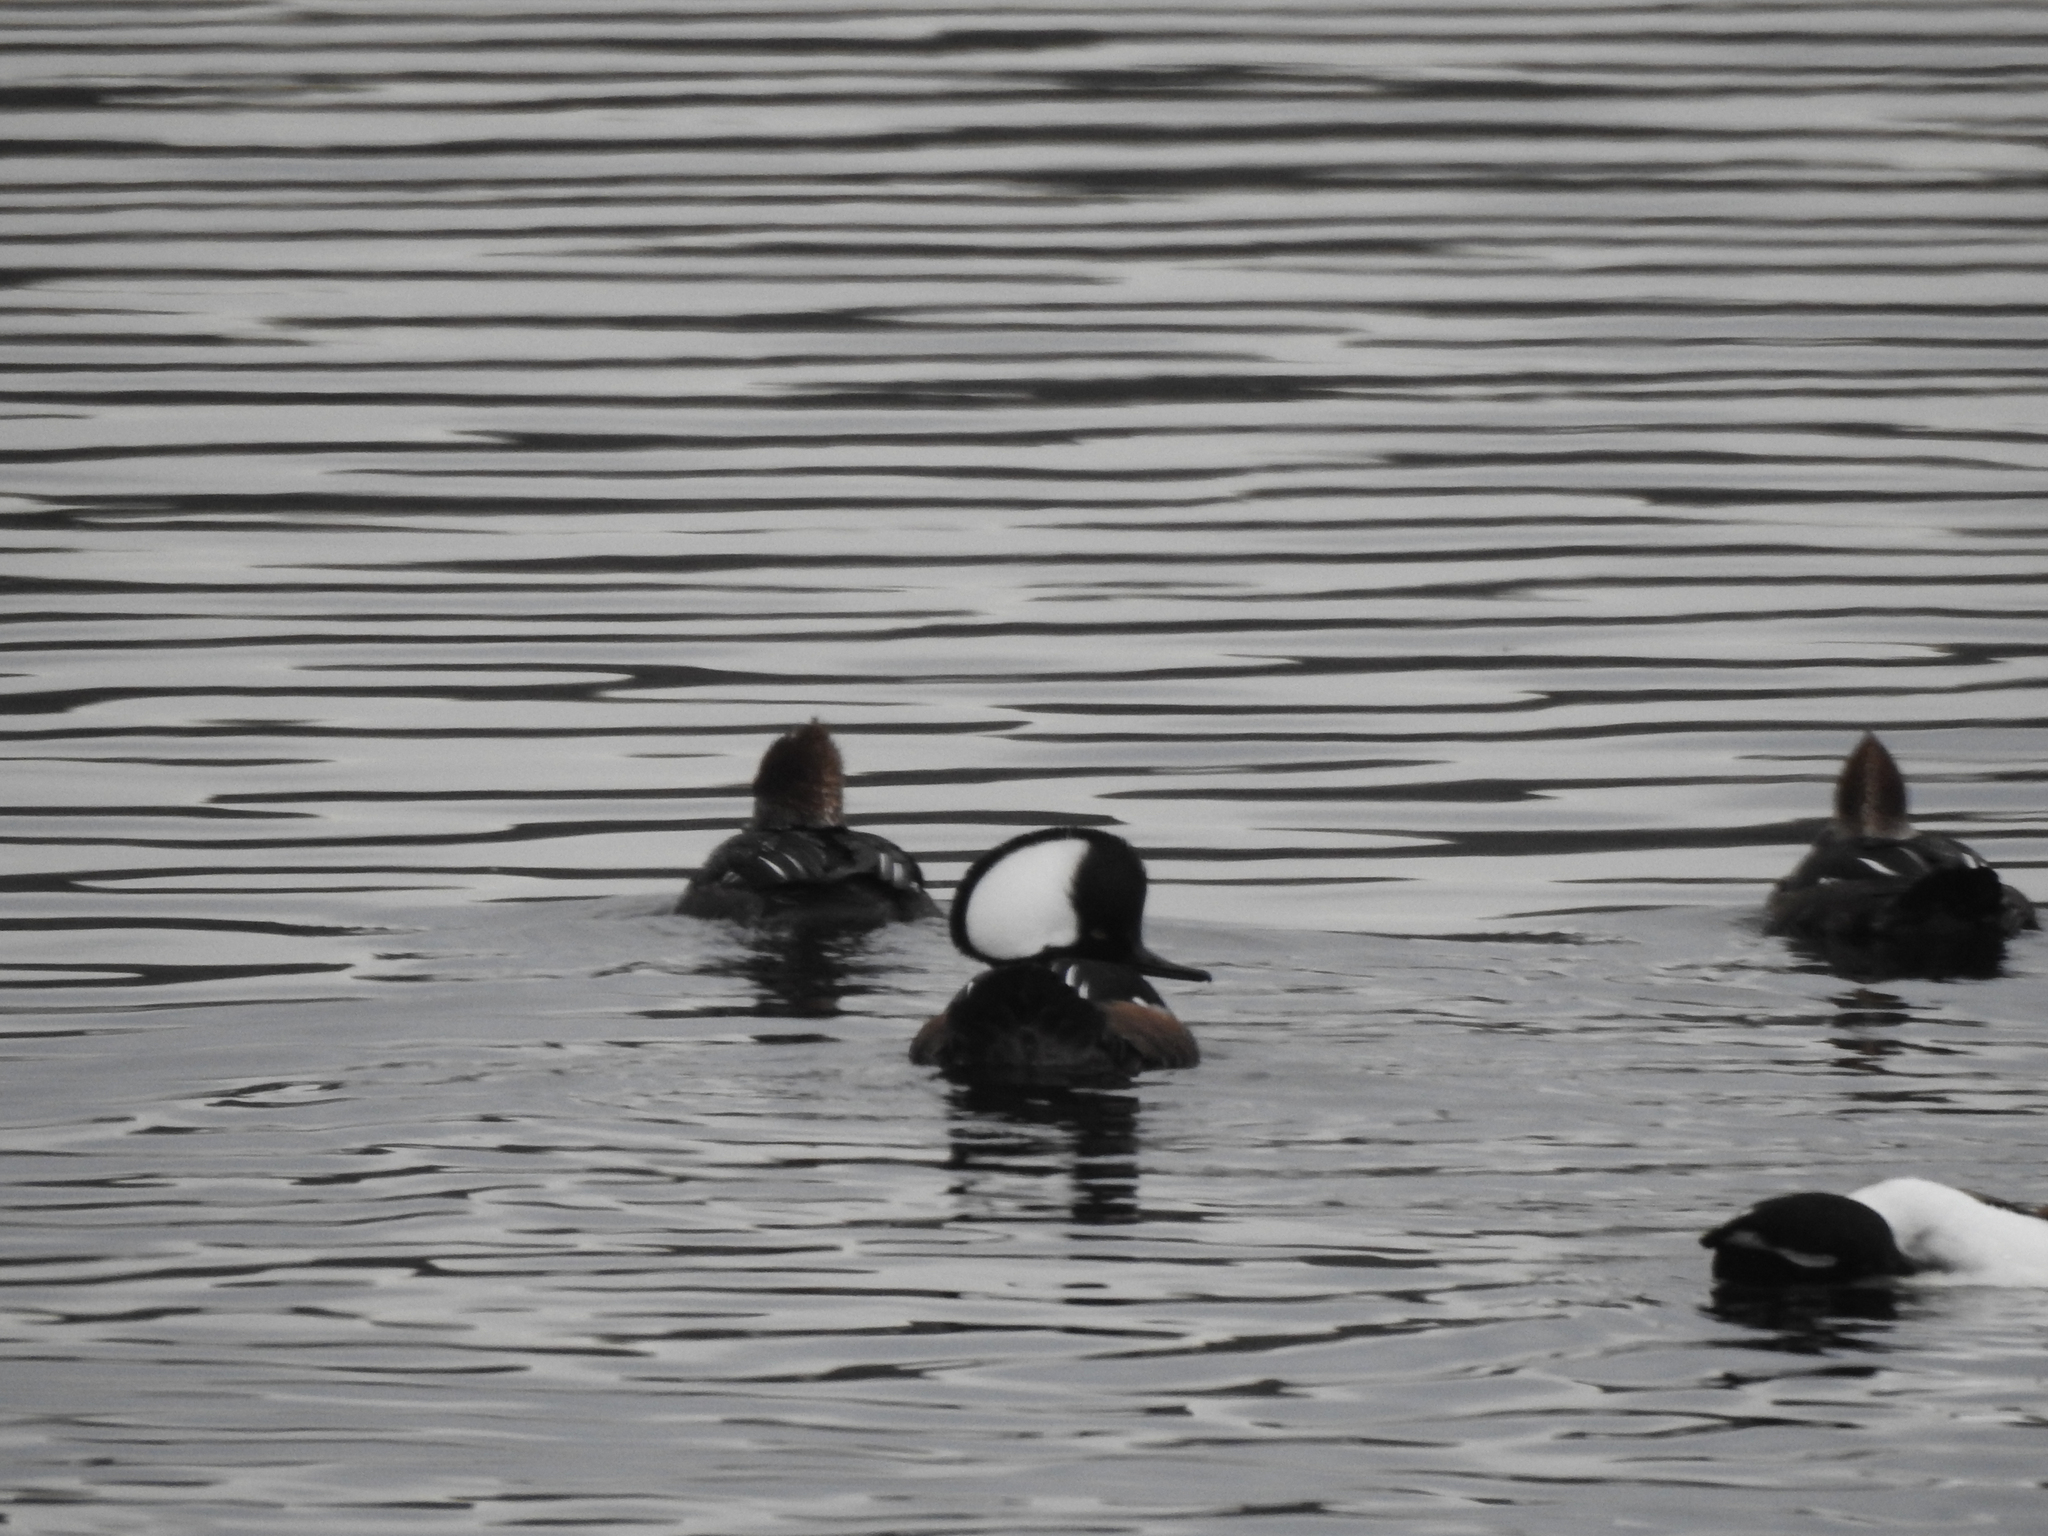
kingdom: Animalia
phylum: Chordata
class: Aves
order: Anseriformes
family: Anatidae
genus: Lophodytes
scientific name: Lophodytes cucullatus
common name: Hooded merganser
